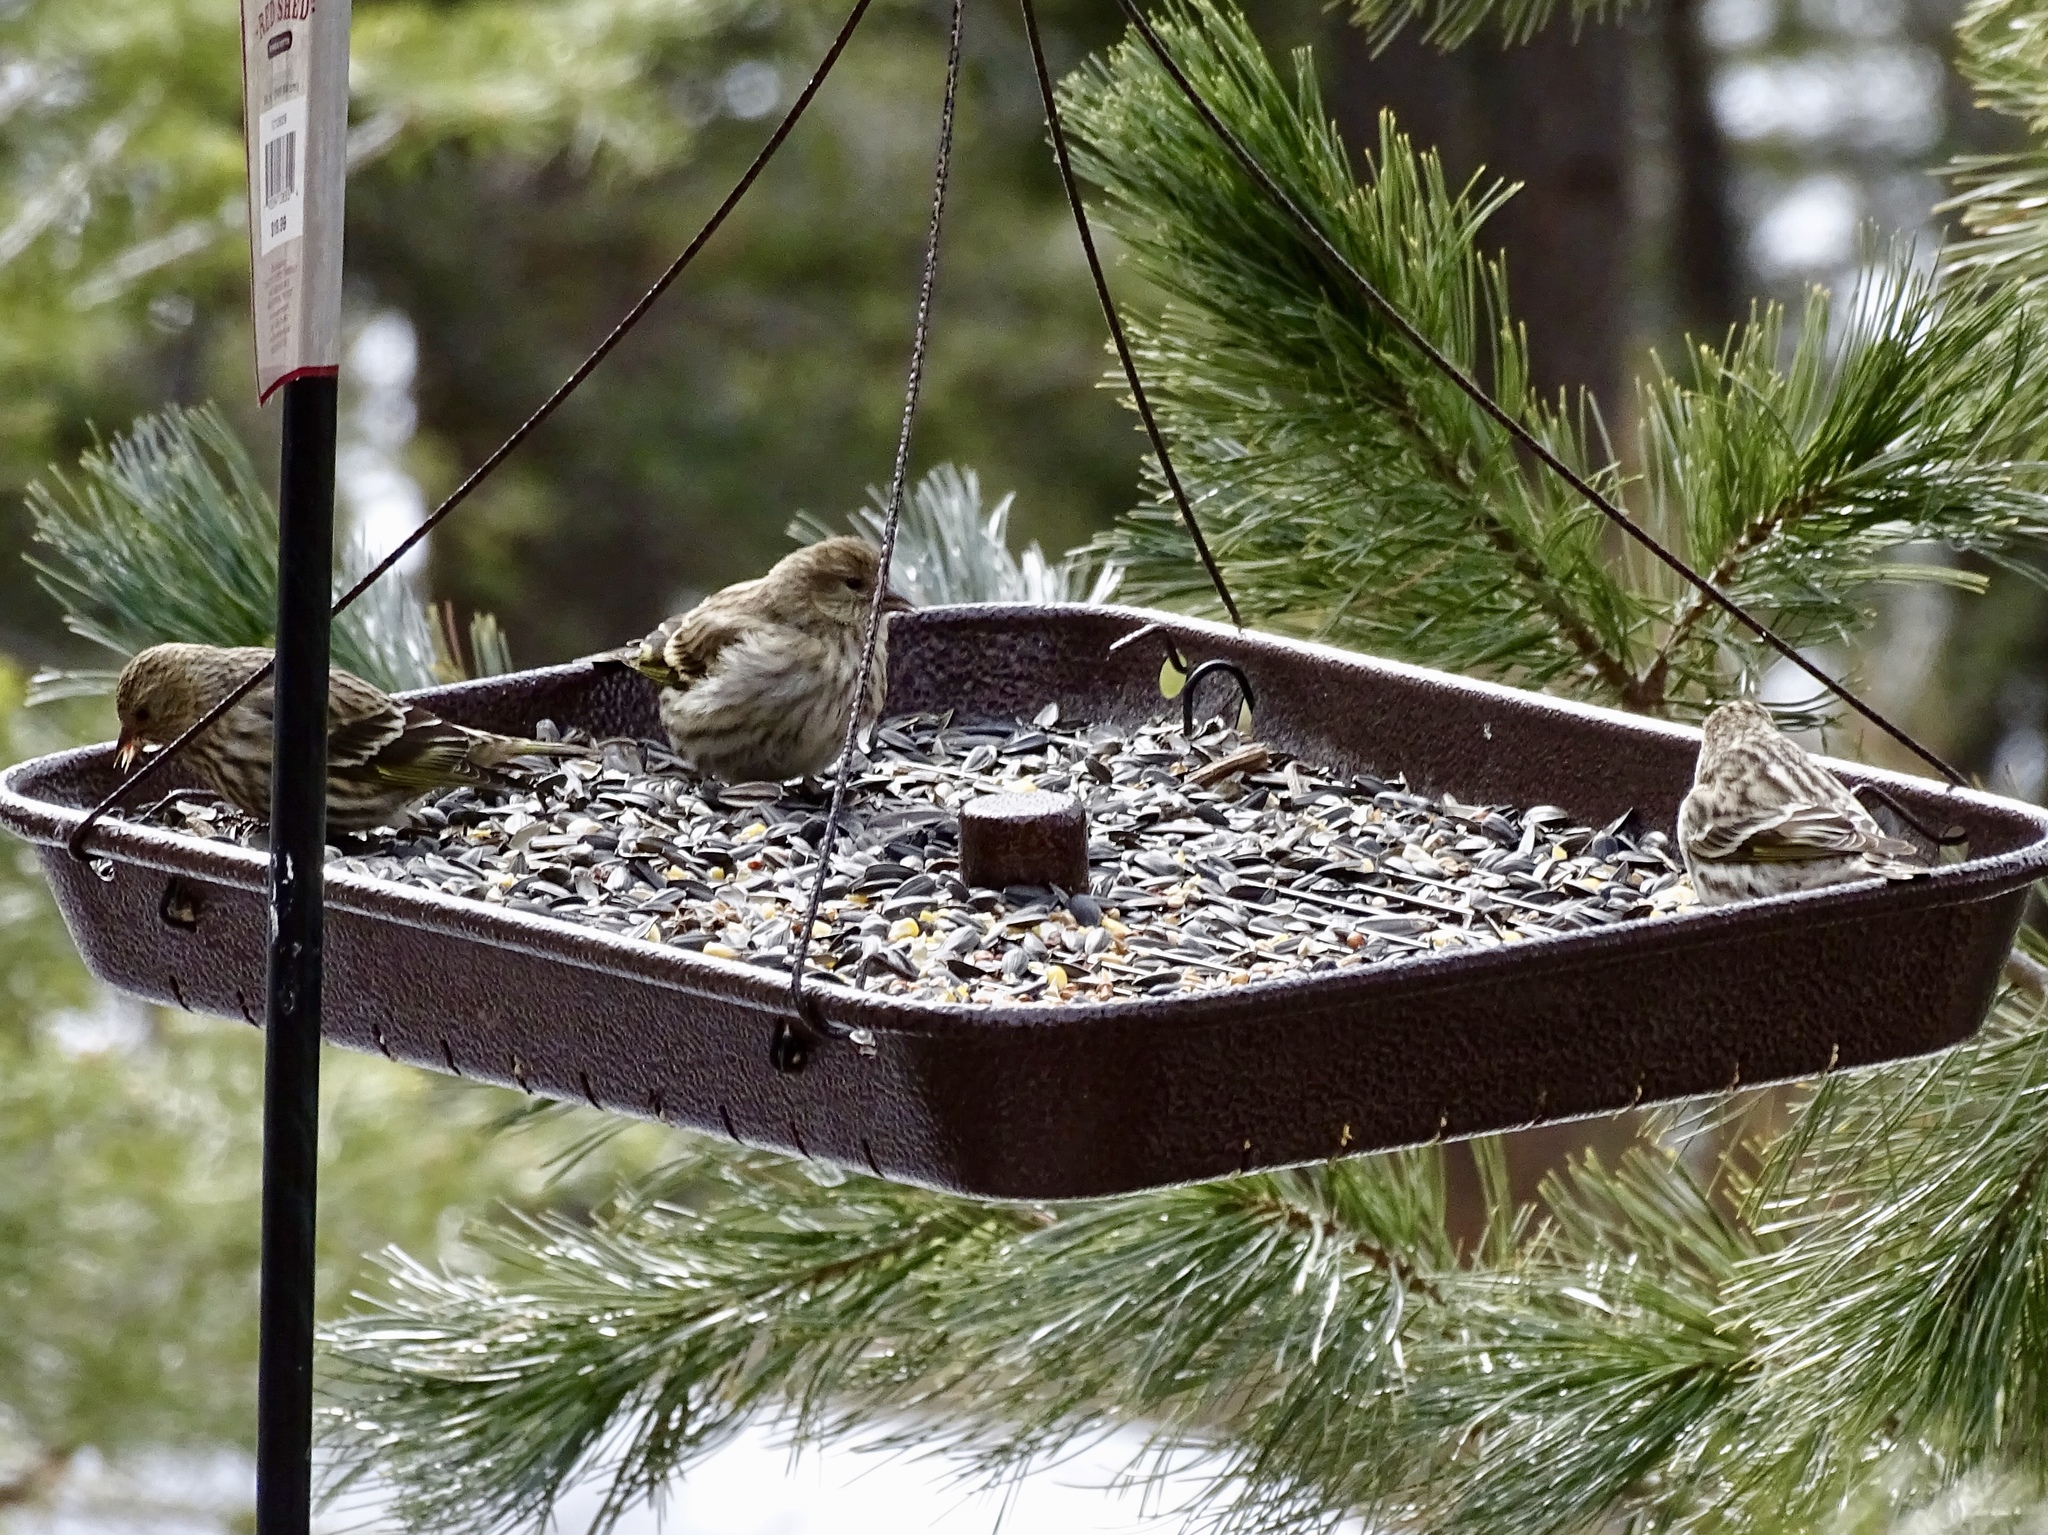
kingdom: Animalia
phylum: Chordata
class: Aves
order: Passeriformes
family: Fringillidae
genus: Spinus
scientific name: Spinus pinus
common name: Pine siskin
